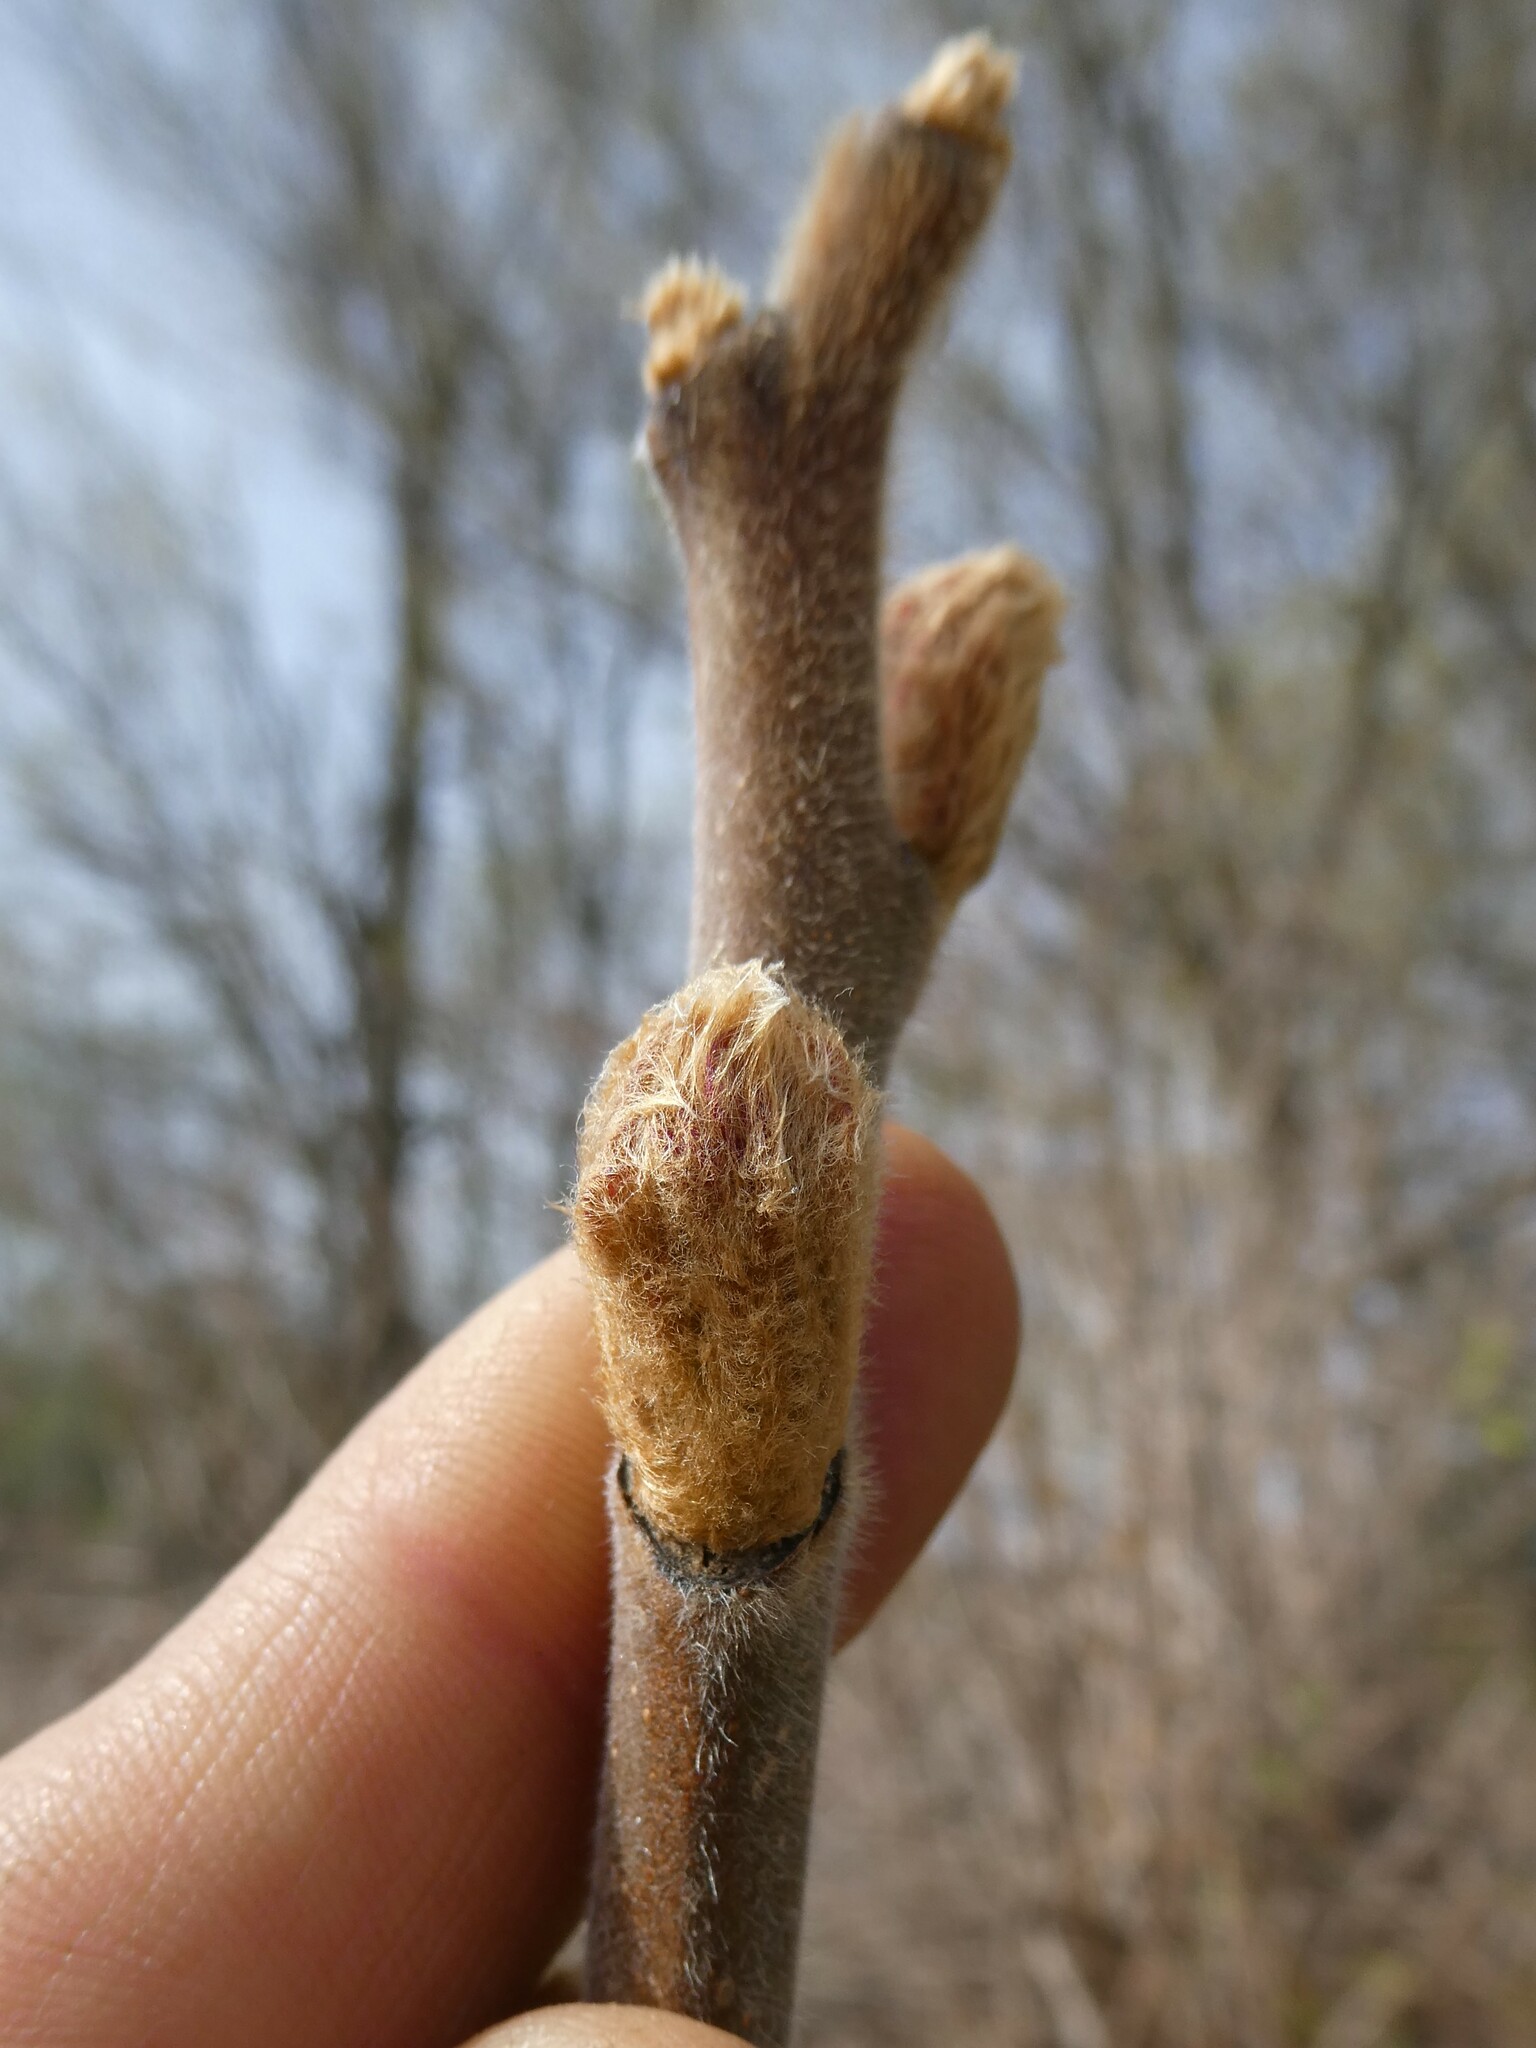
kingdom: Plantae
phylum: Tracheophyta
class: Magnoliopsida
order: Sapindales
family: Anacardiaceae
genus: Rhus
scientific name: Rhus typhina
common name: Staghorn sumac
